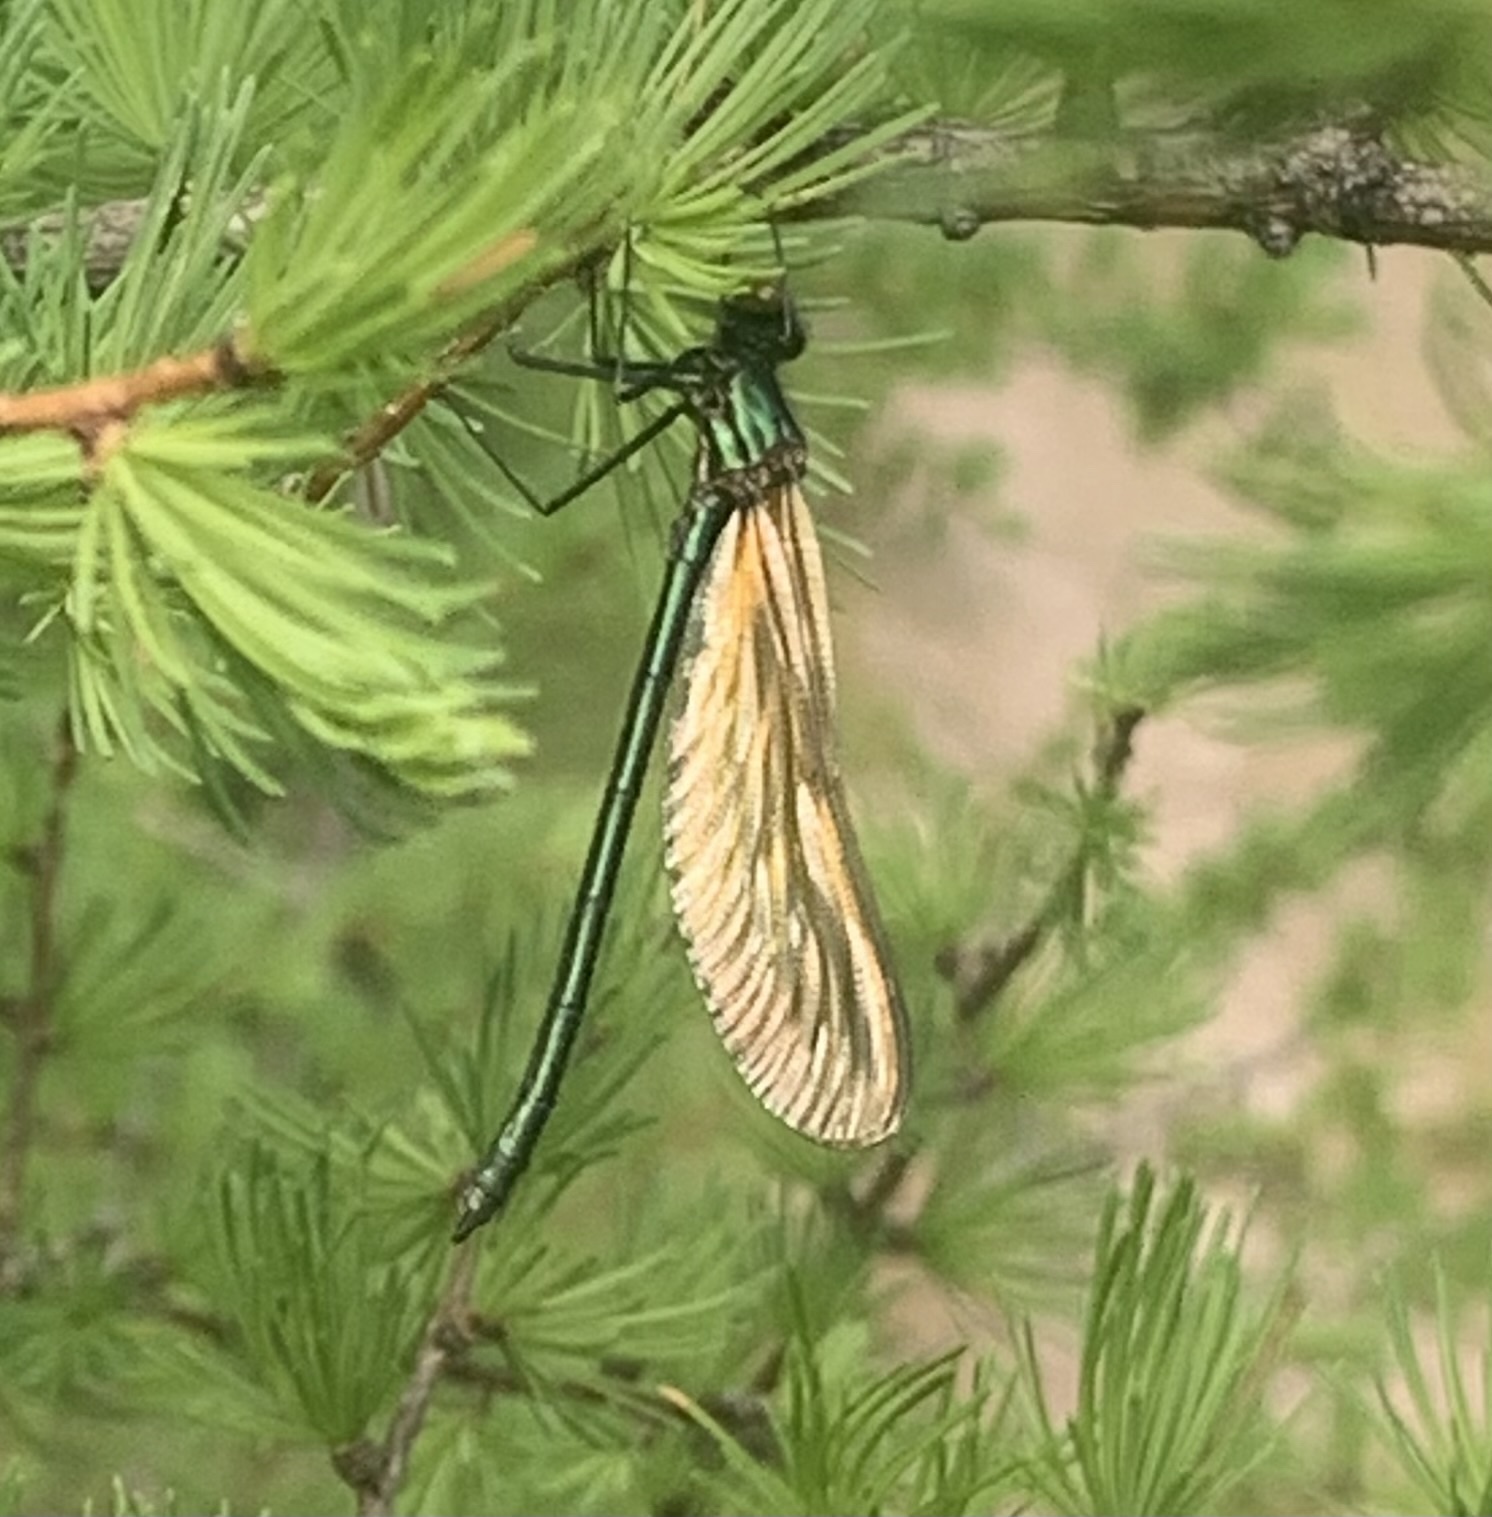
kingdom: Animalia
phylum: Arthropoda
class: Insecta
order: Odonata
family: Calopterygidae
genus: Calopteryx
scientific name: Calopteryx aequabilis
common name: River jewelwing
